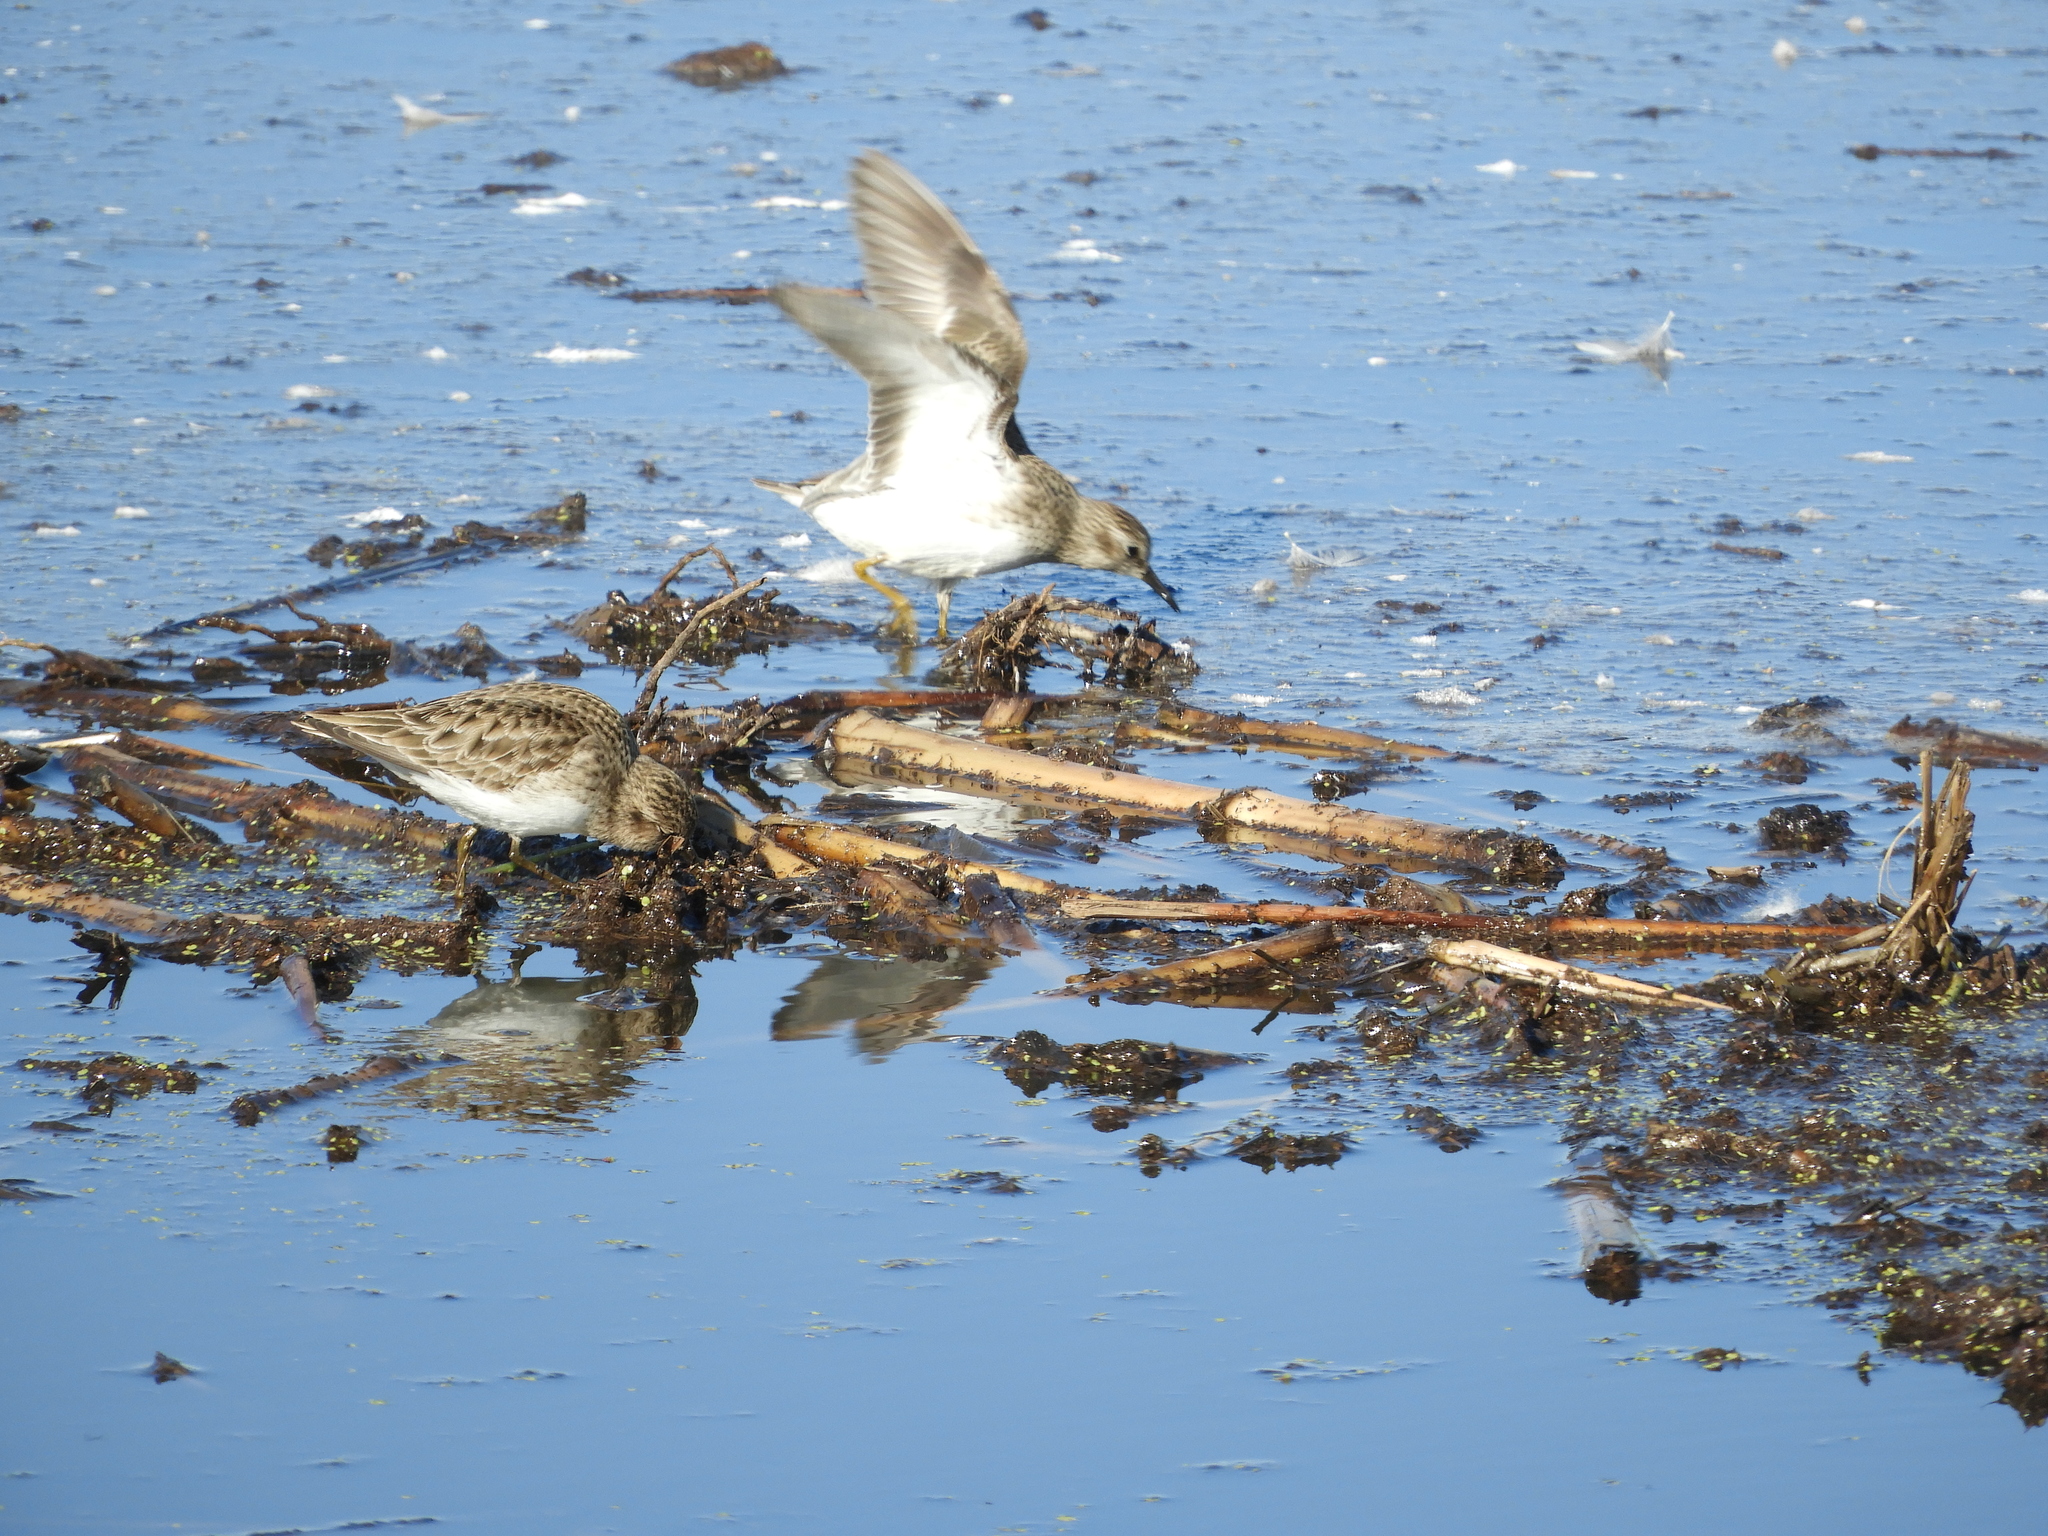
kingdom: Animalia
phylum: Chordata
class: Aves
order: Charadriiformes
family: Scolopacidae
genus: Calidris
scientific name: Calidris minutilla
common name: Least sandpiper
